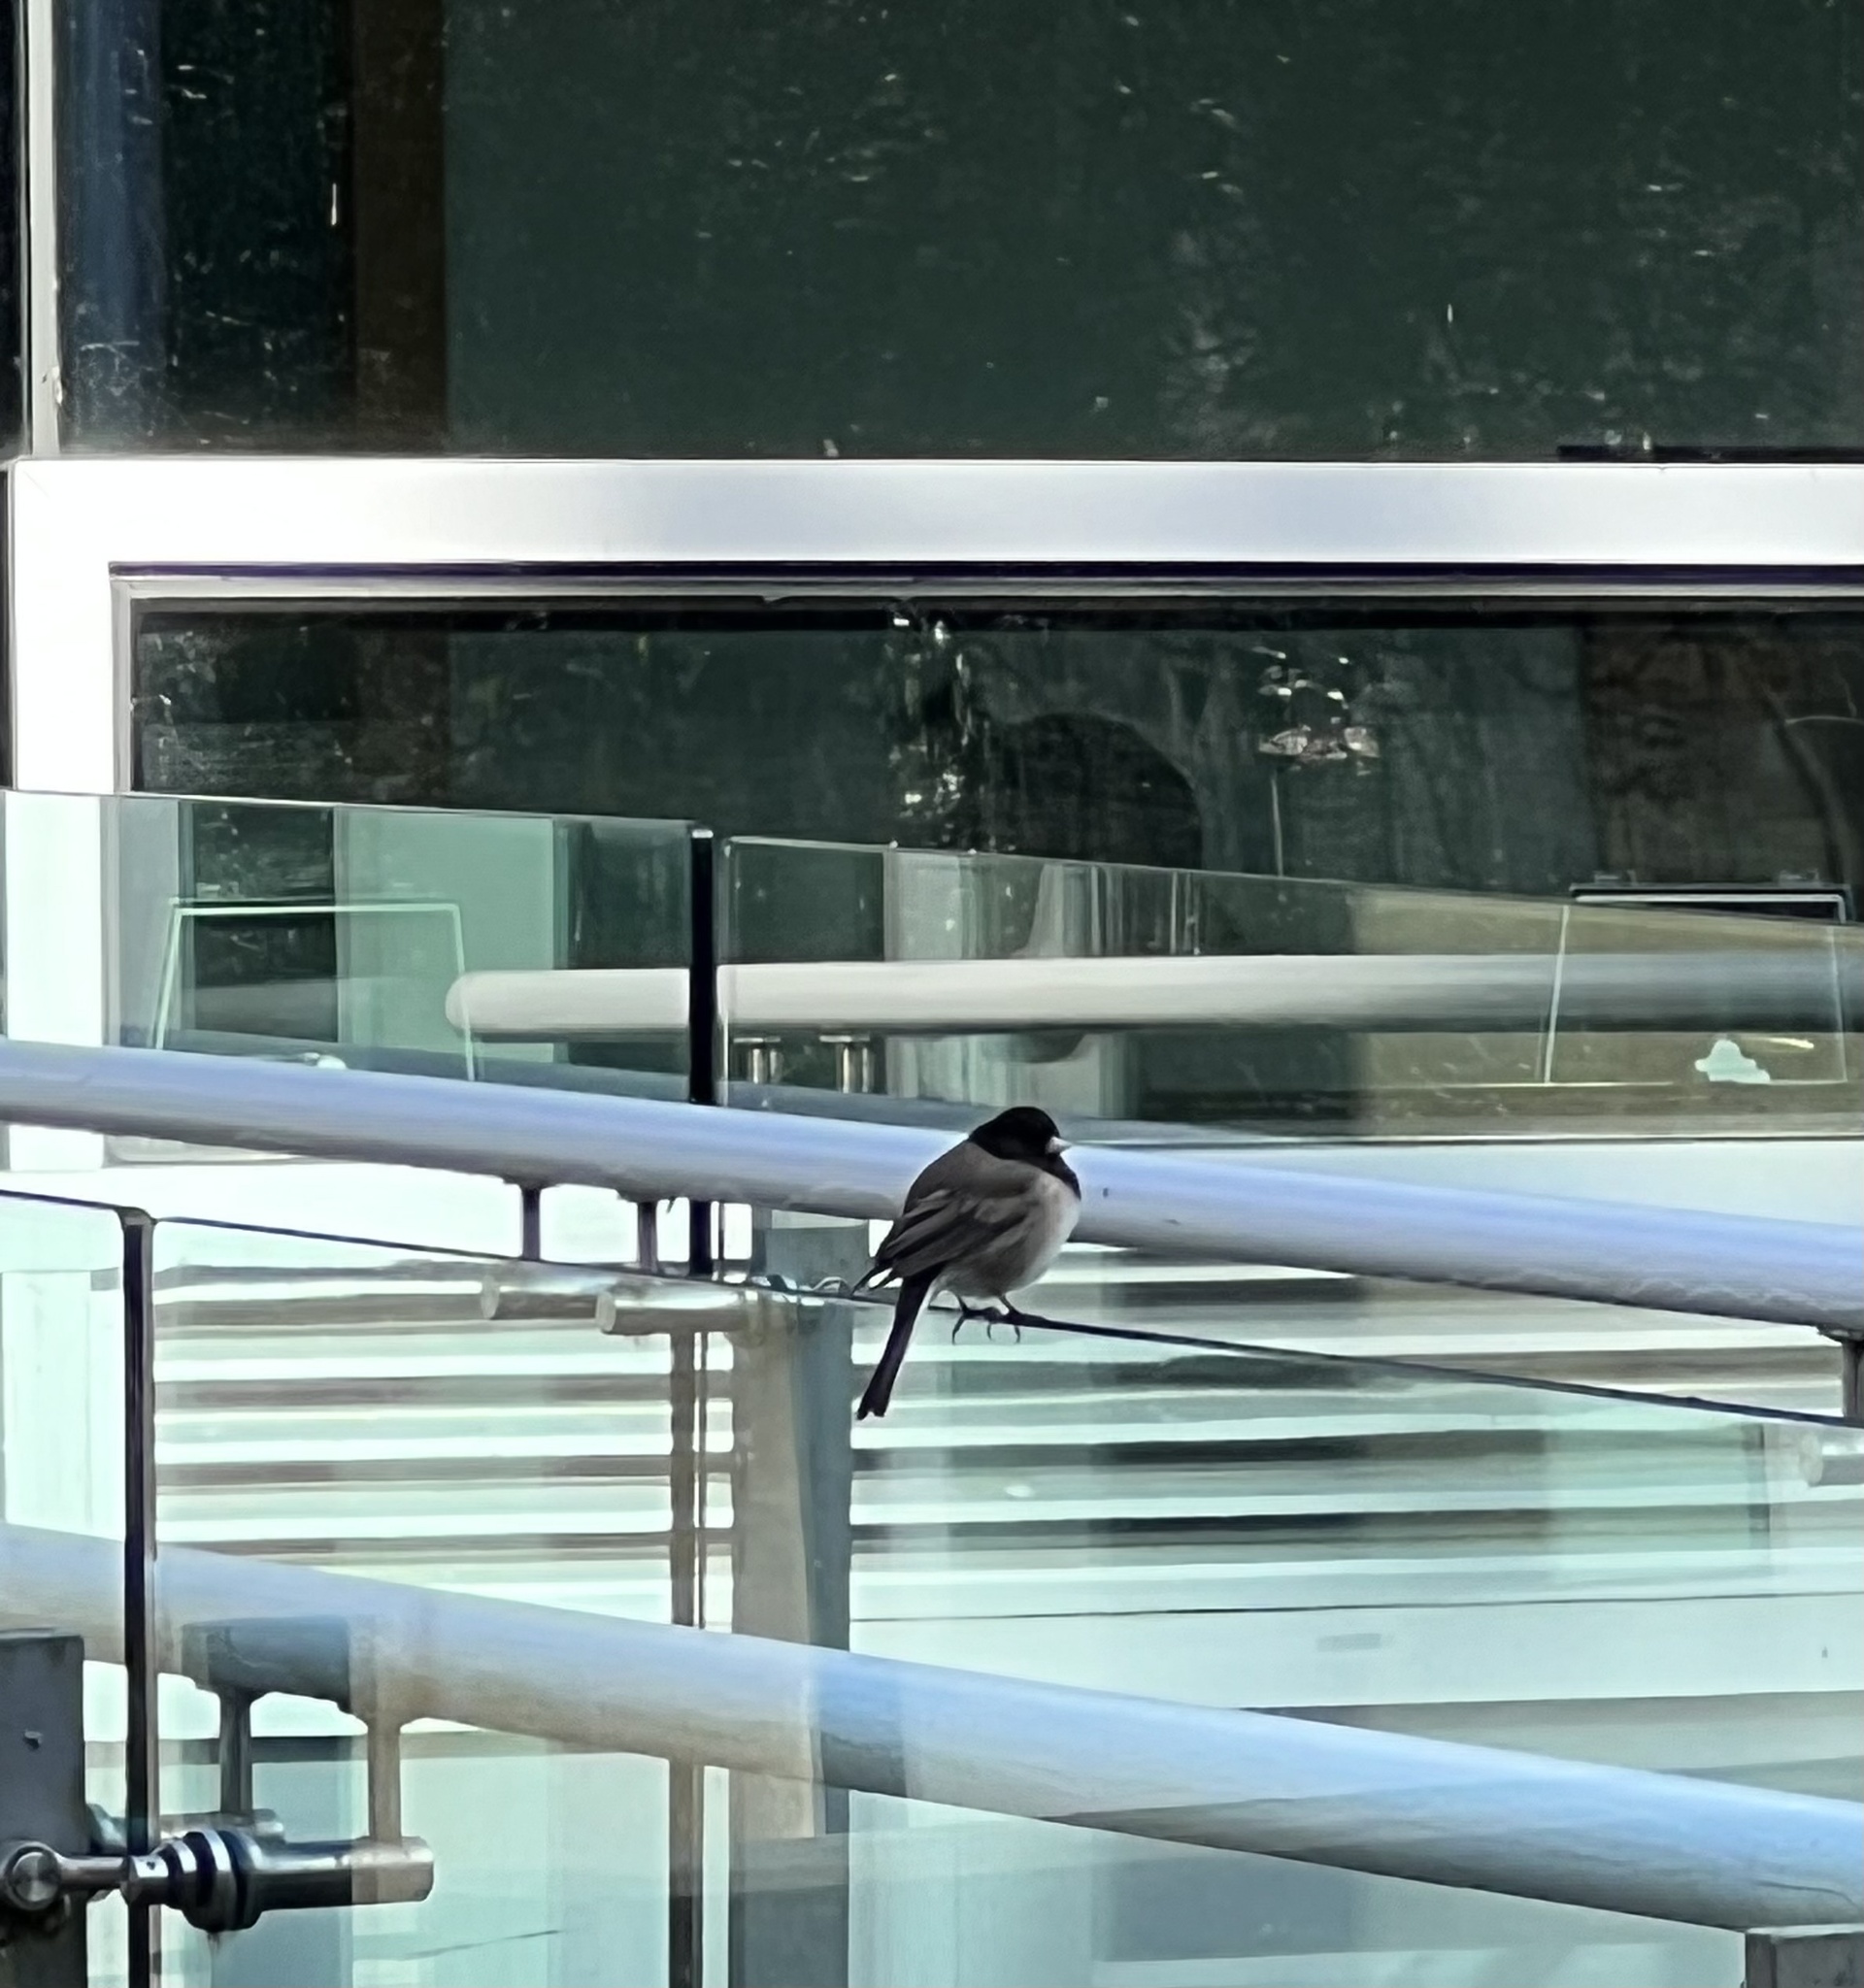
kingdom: Animalia
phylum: Chordata
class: Aves
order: Passeriformes
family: Passerellidae
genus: Junco
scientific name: Junco hyemalis
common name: Dark-eyed junco
